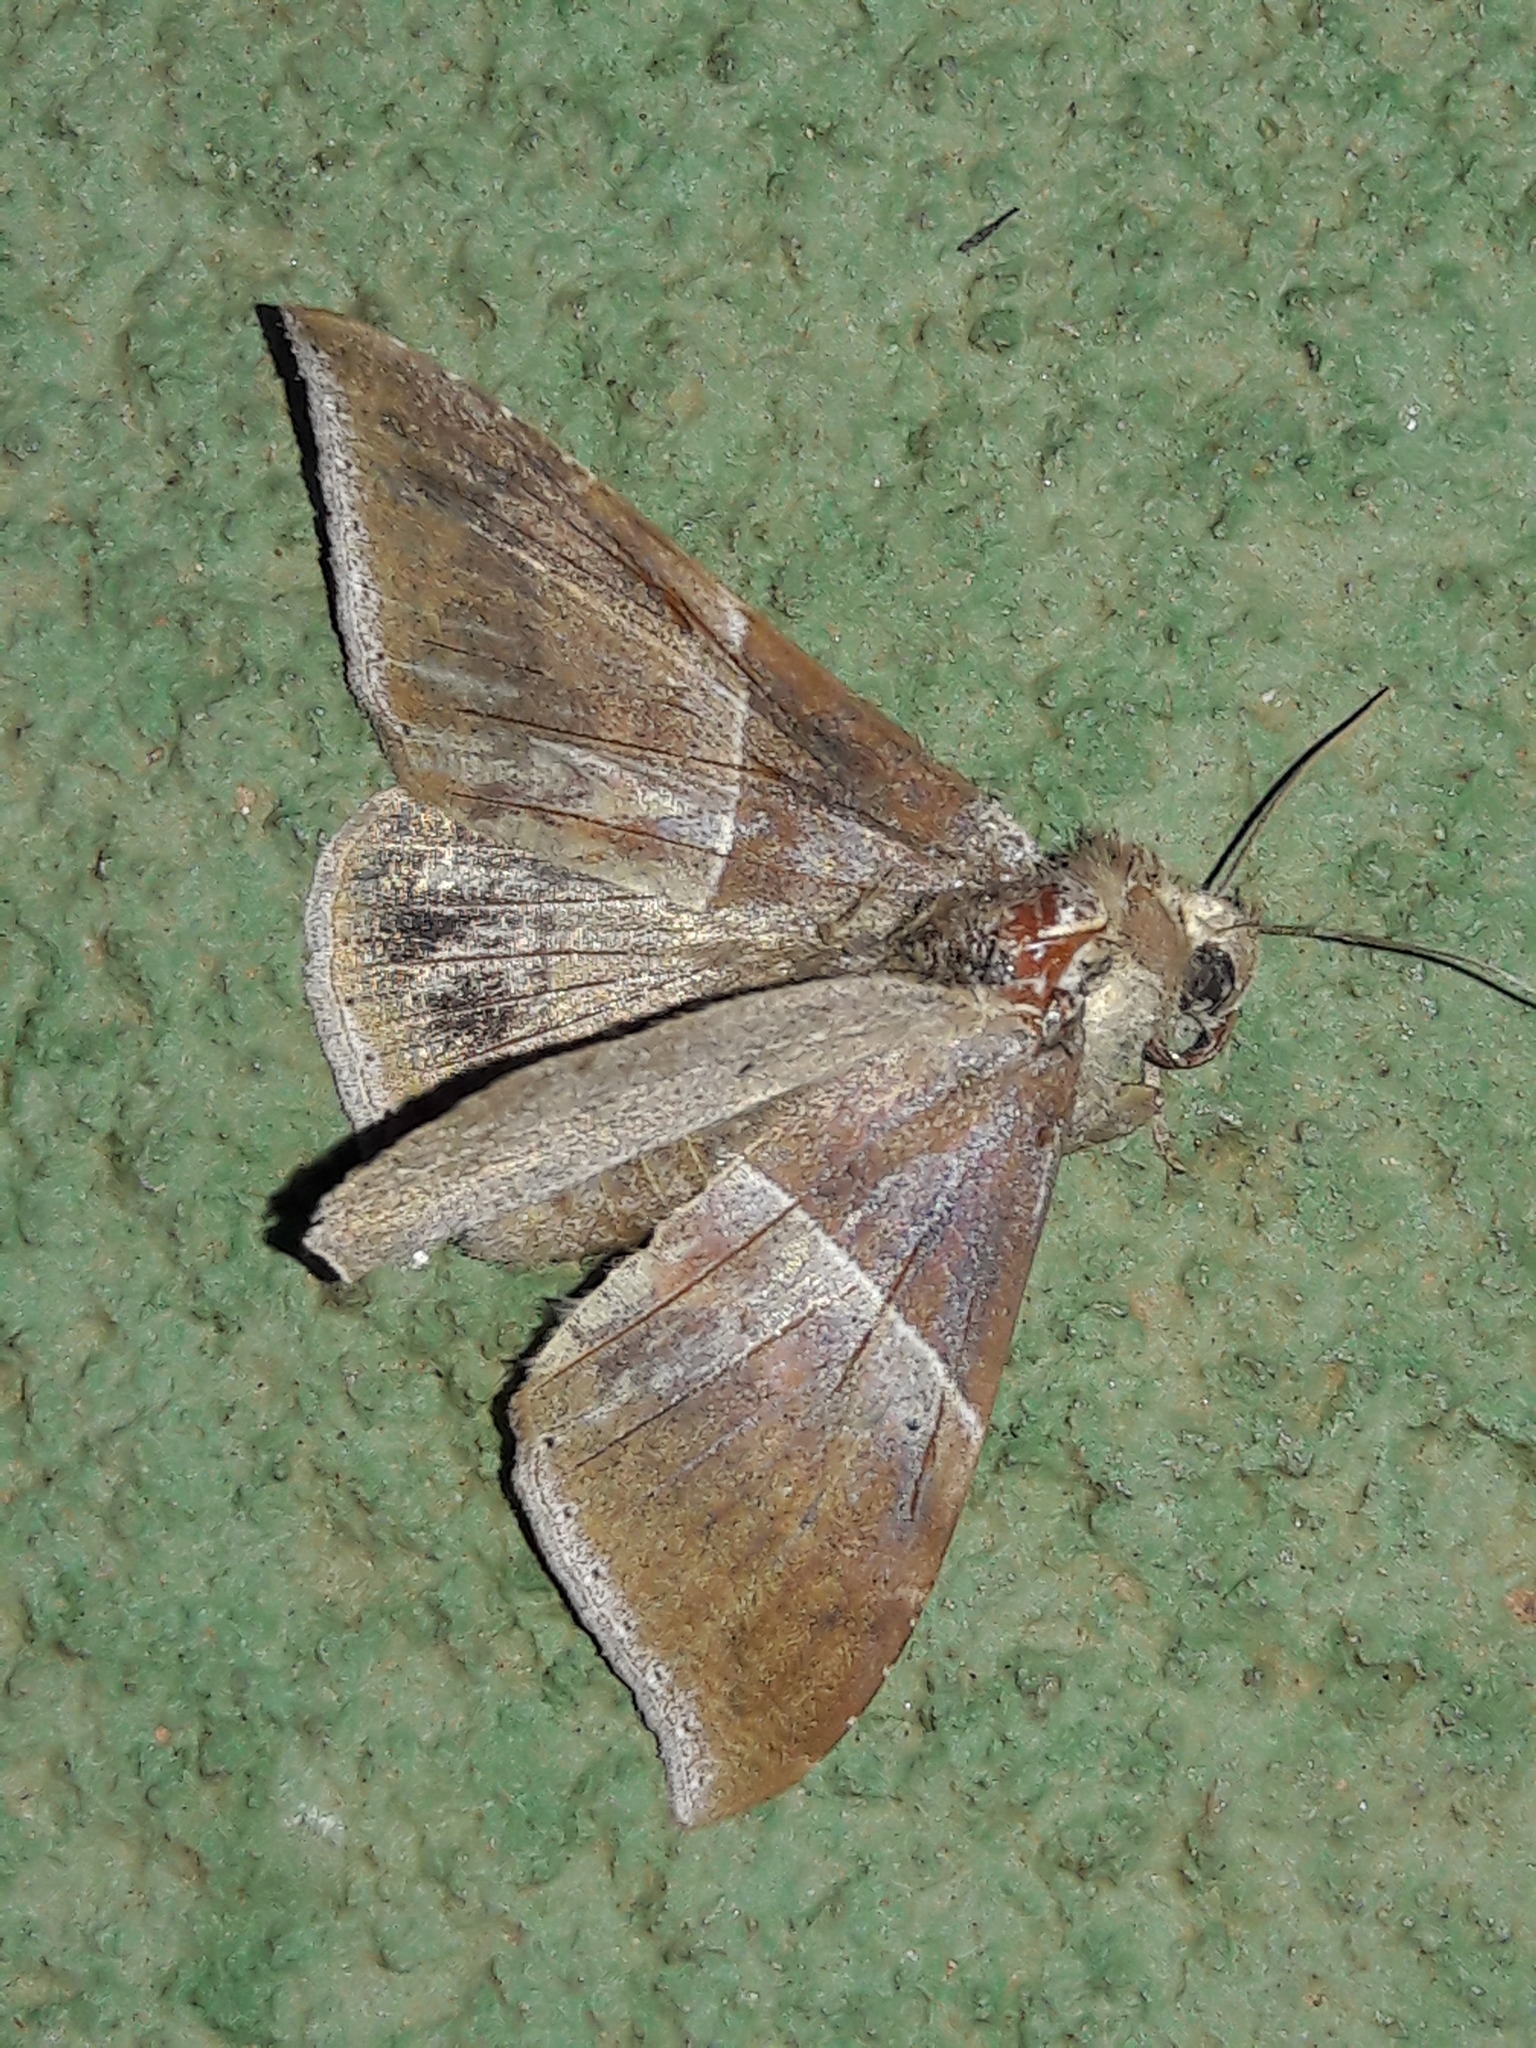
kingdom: Animalia
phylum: Arthropoda
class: Insecta
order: Lepidoptera
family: Erebidae
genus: Ophisma
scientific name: Ophisma tropicalis
